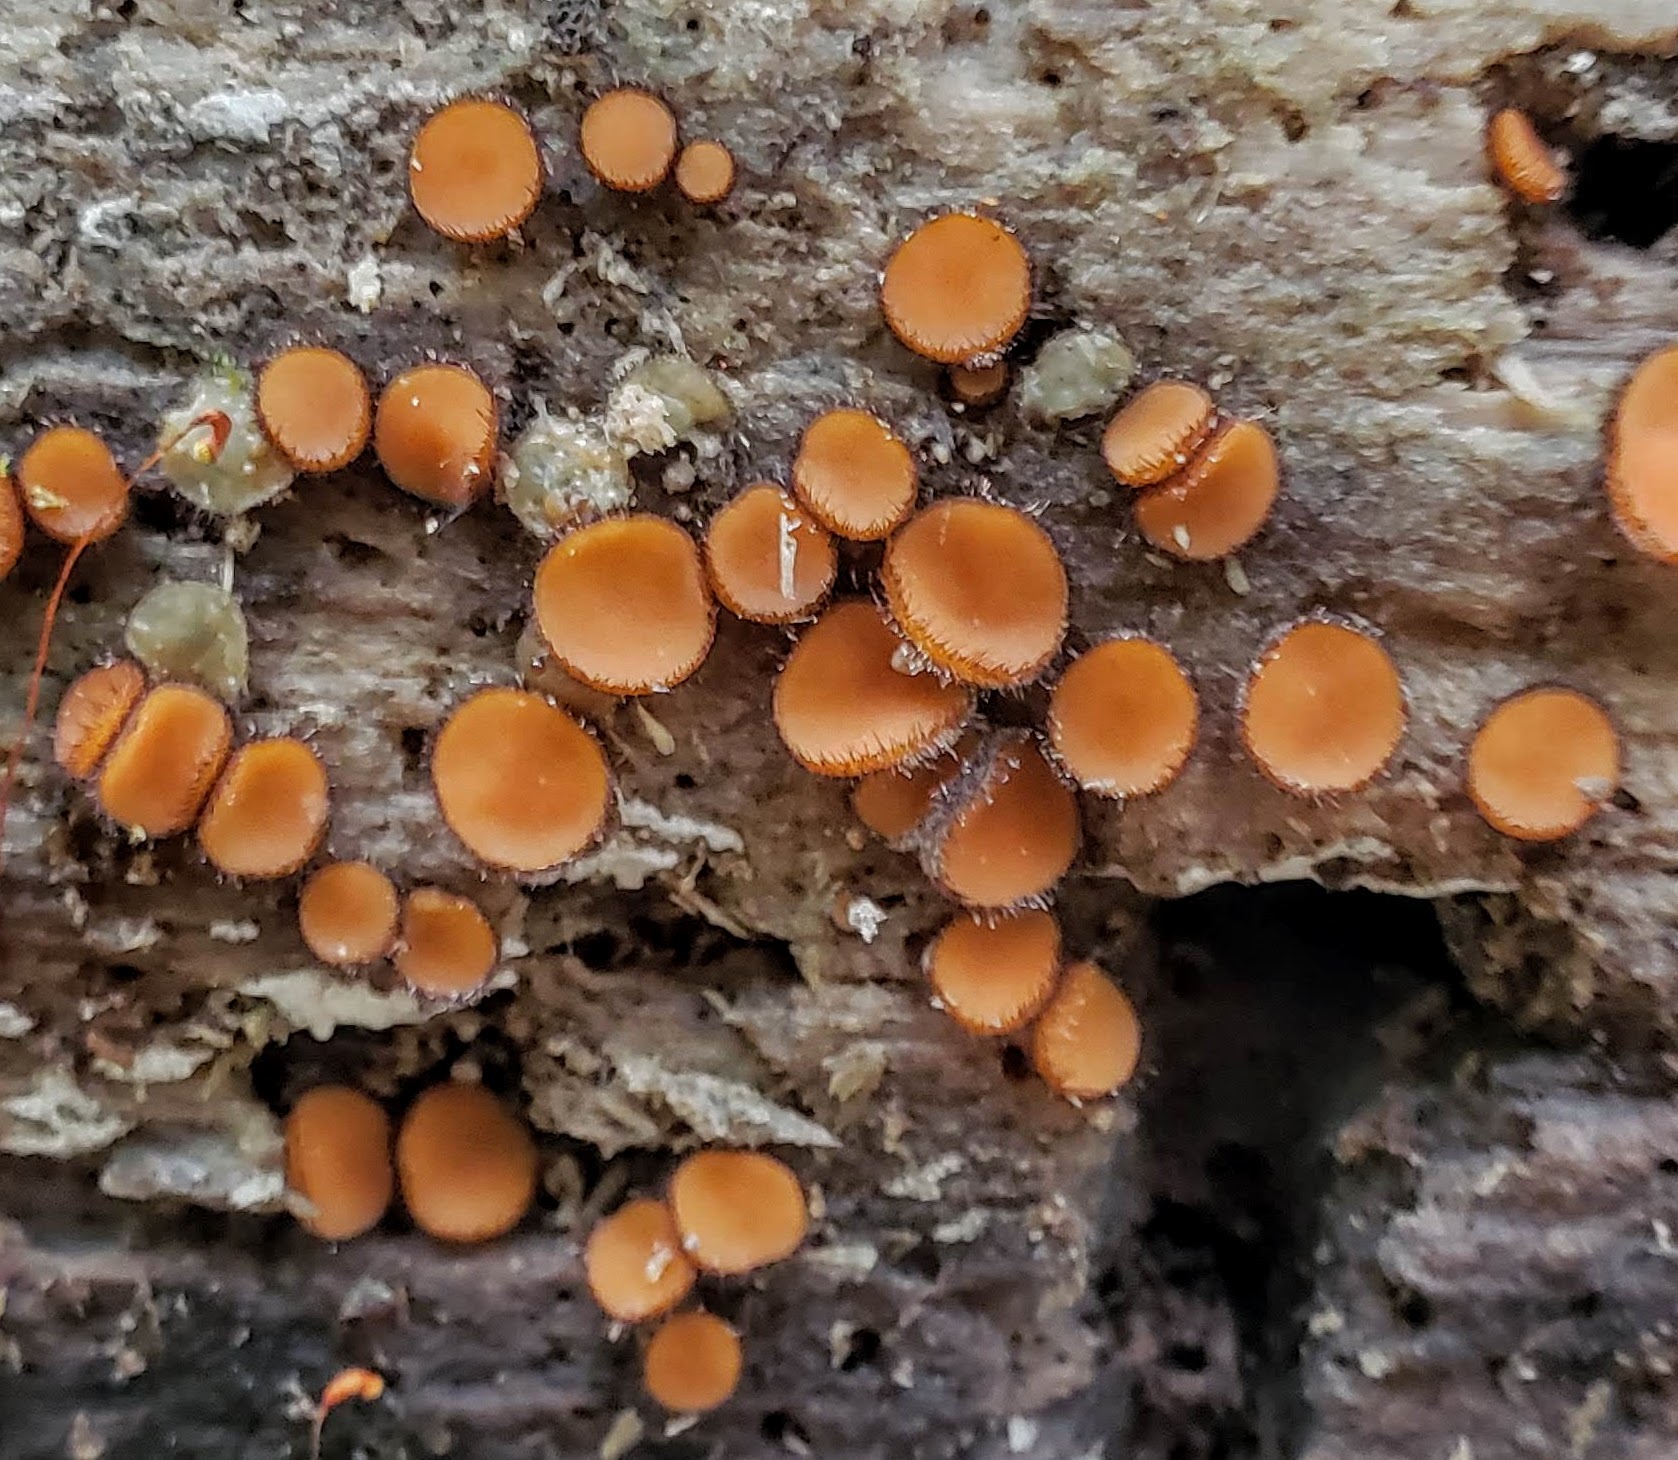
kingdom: Fungi
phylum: Ascomycota
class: Pezizomycetes
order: Pezizales
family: Pyronemataceae
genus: Scutellinia
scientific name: Scutellinia
